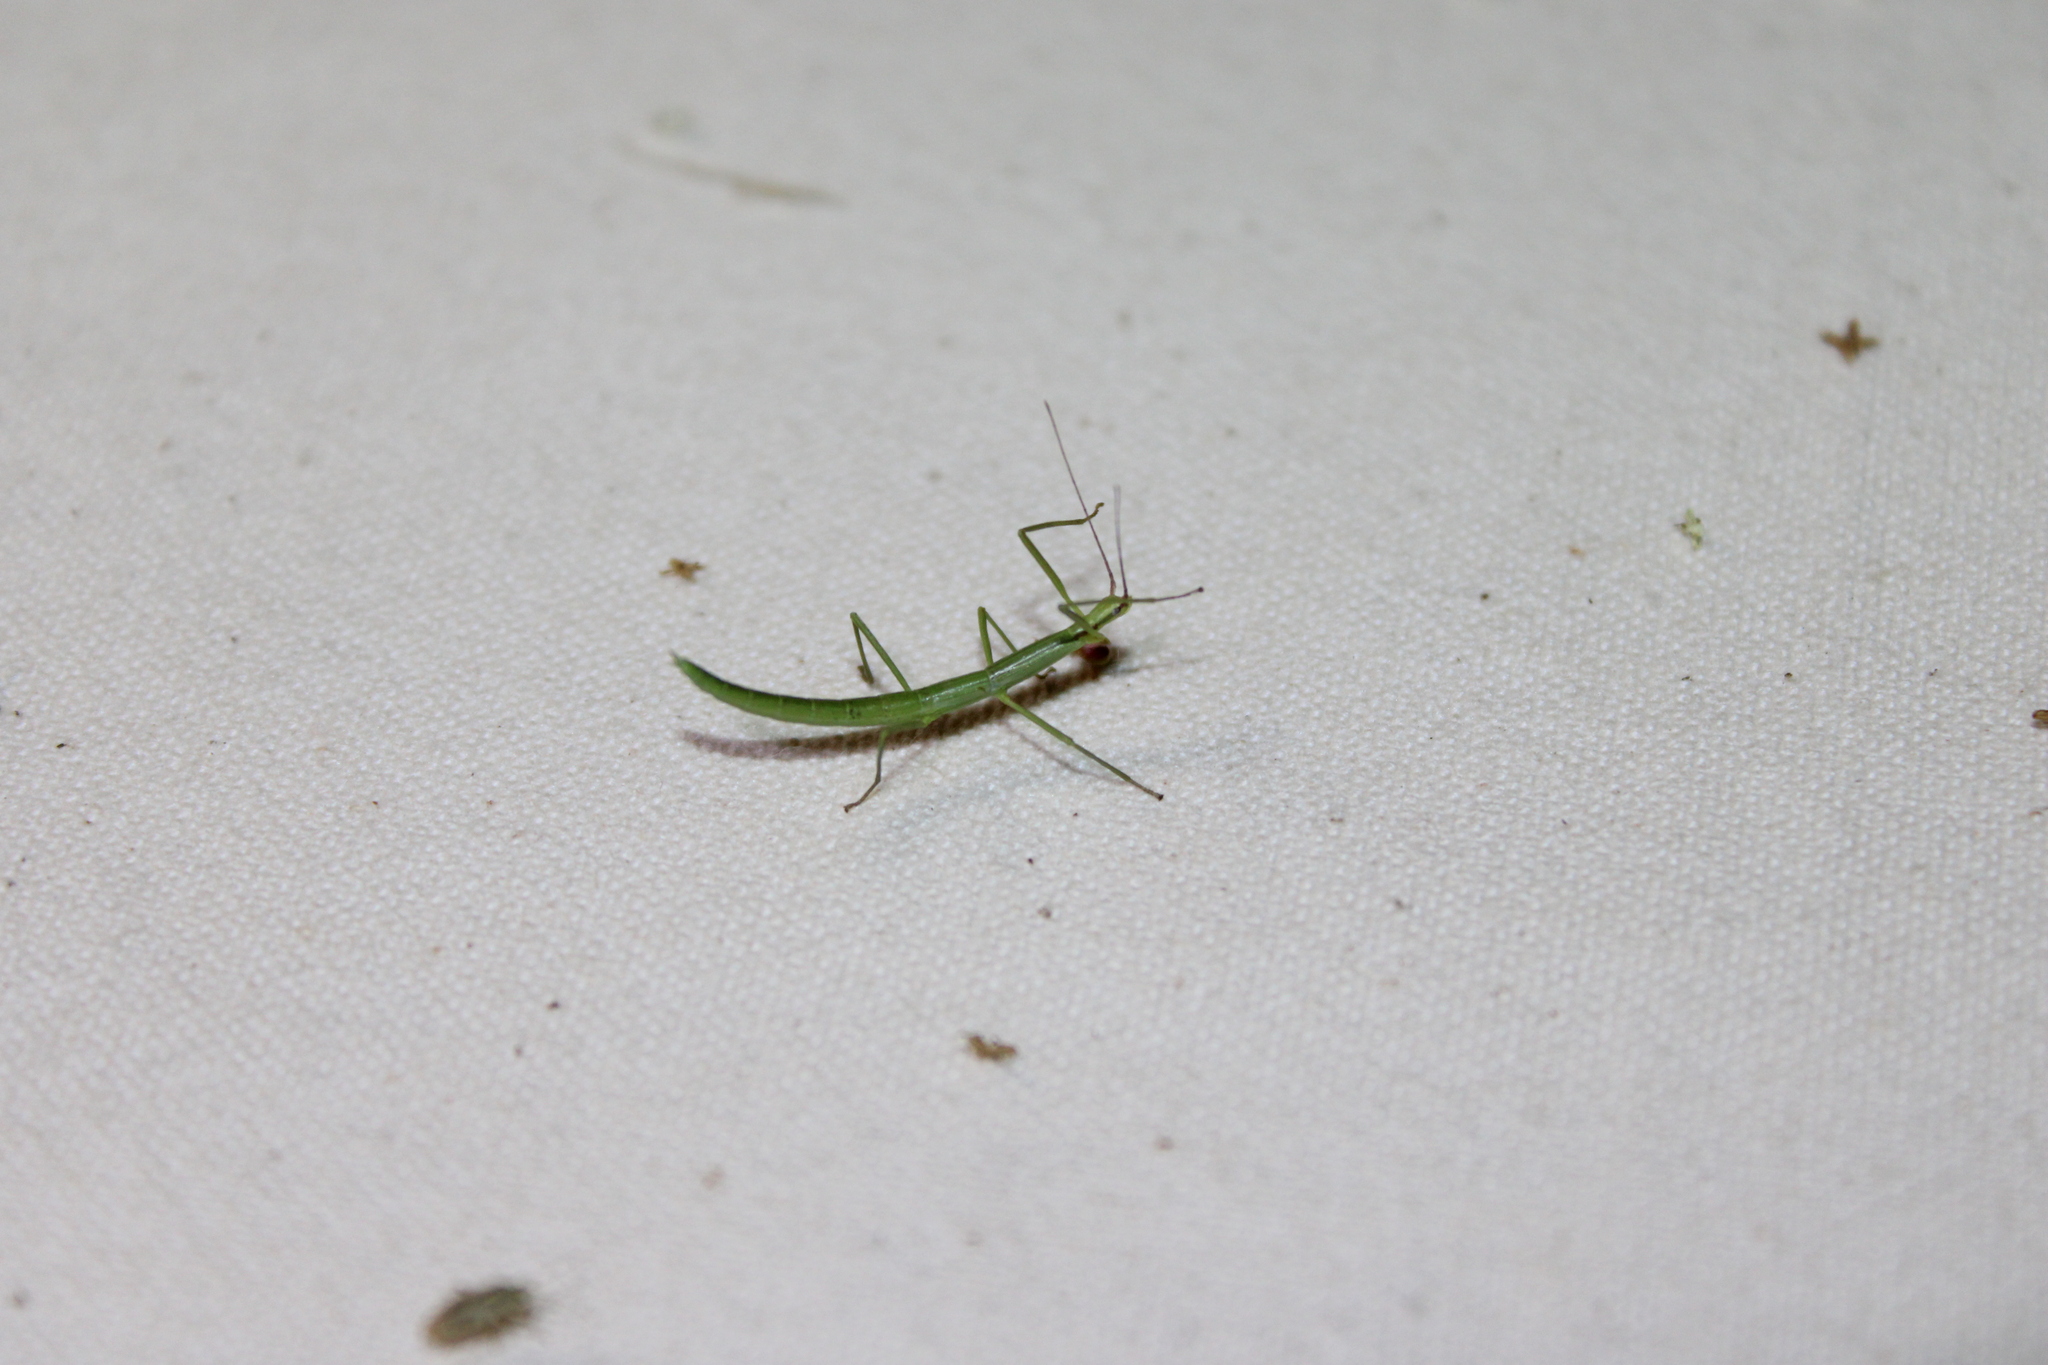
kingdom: Animalia
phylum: Arthropoda
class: Insecta
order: Phasmida
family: Diapheromeridae
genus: Manomera
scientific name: Manomera blatchleyi
